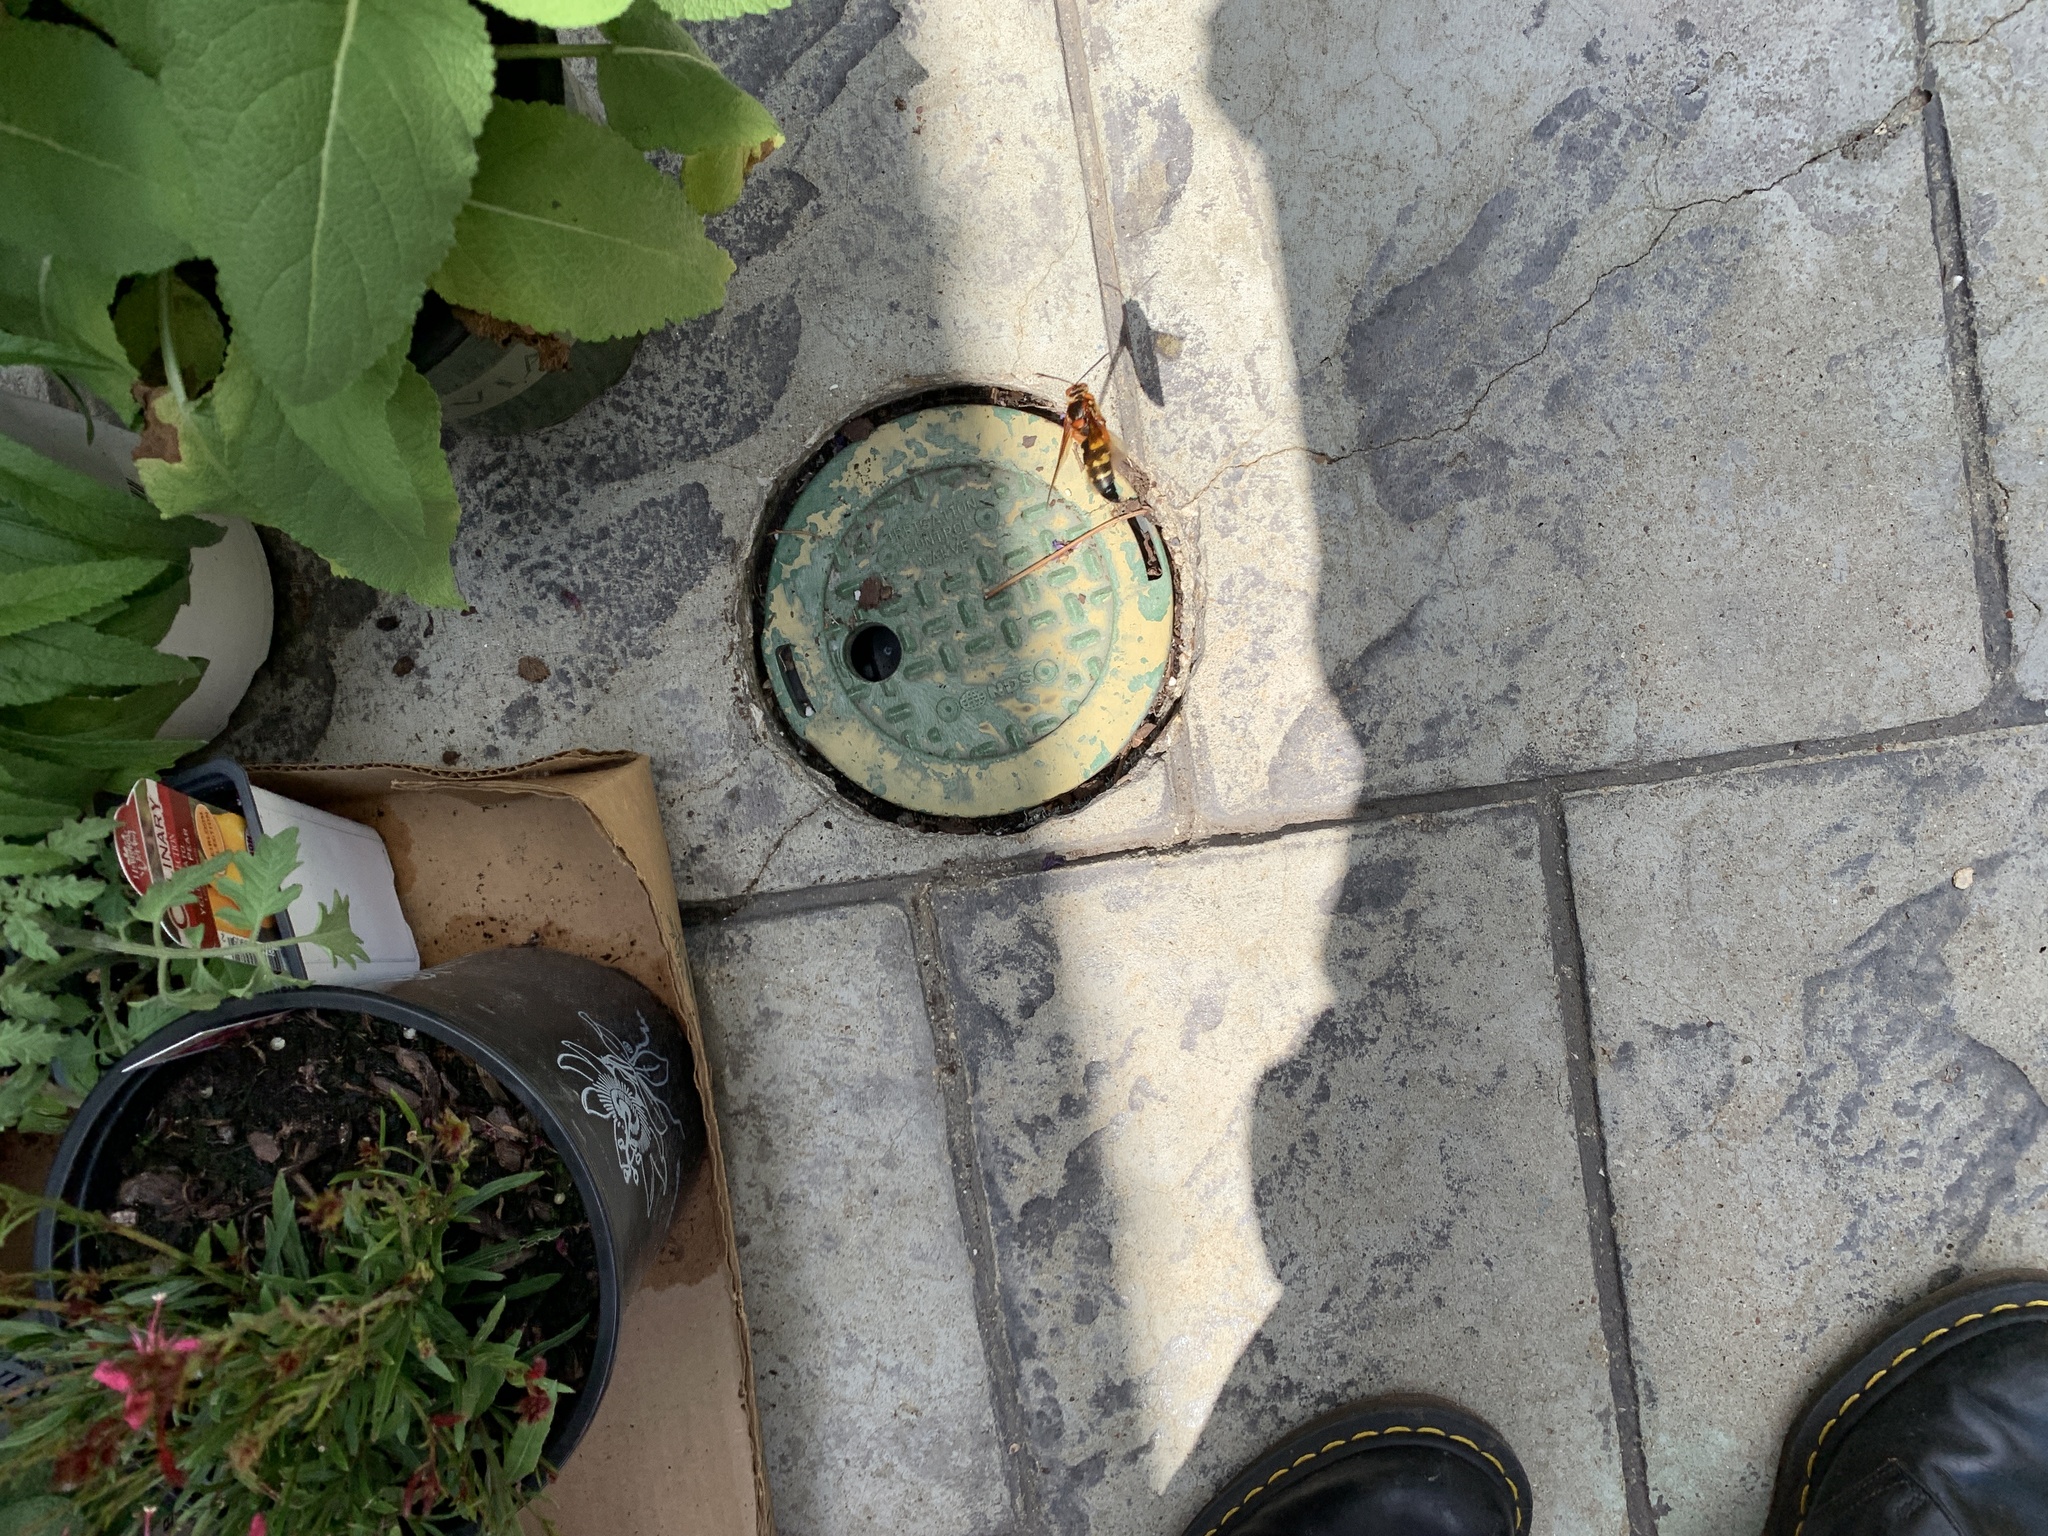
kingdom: Animalia
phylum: Arthropoda
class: Insecta
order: Hymenoptera
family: Crabronidae
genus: Sphecius
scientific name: Sphecius speciosus
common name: Cicada killer
